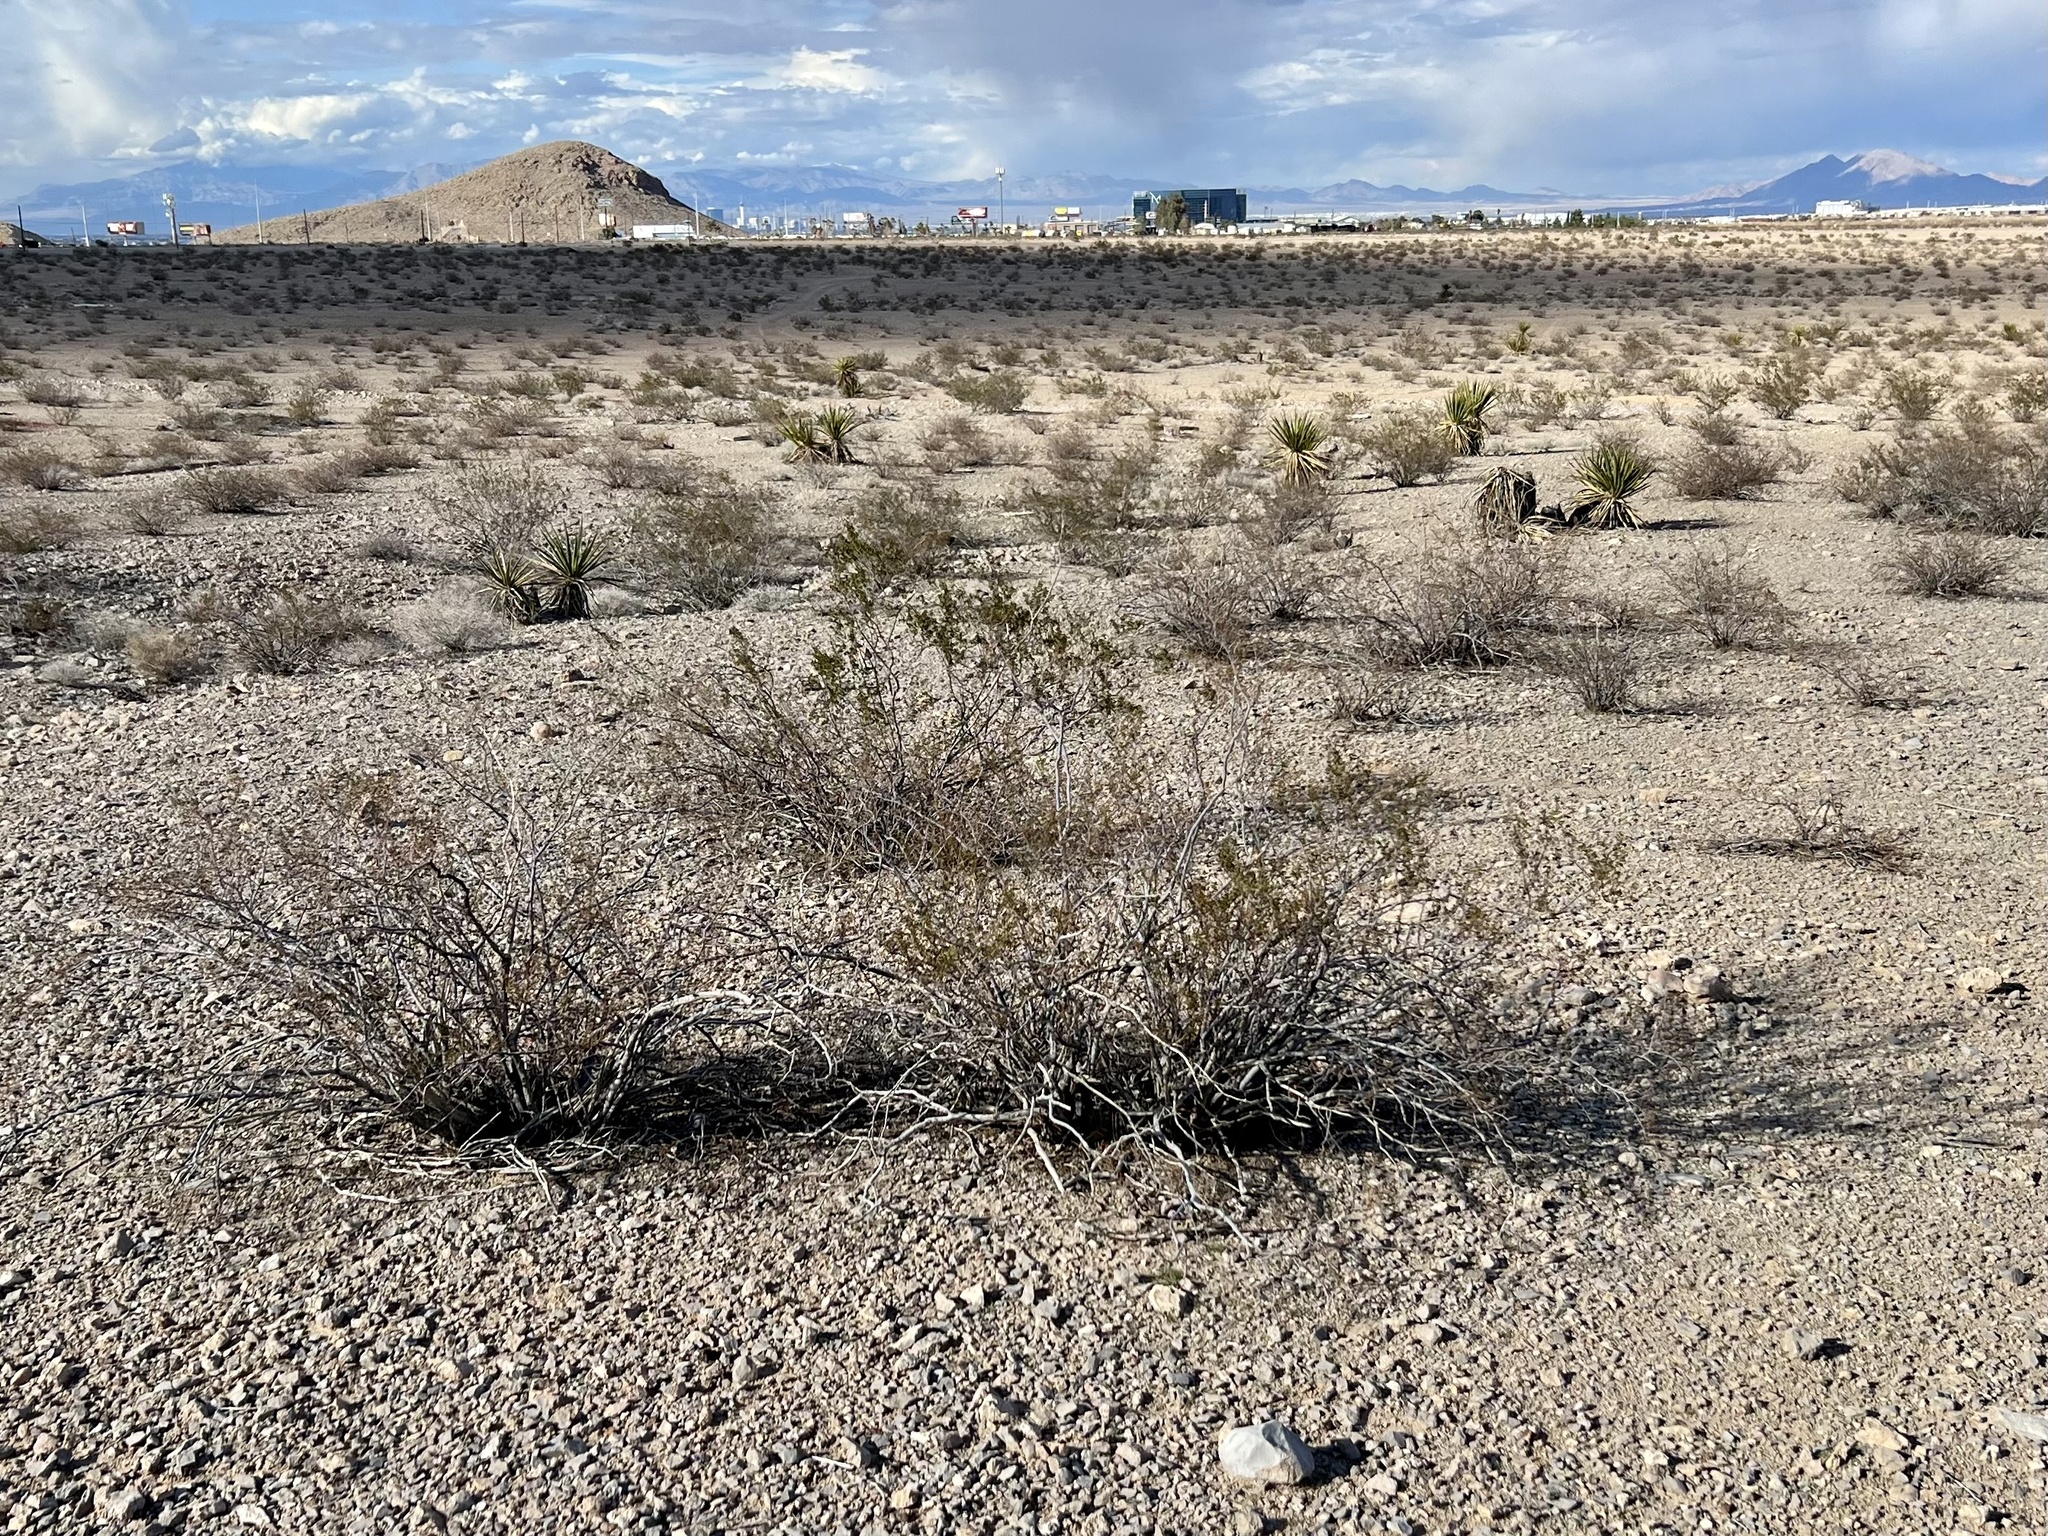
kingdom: Plantae
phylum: Tracheophyta
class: Magnoliopsida
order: Zygophyllales
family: Zygophyllaceae
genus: Larrea
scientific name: Larrea tridentata
